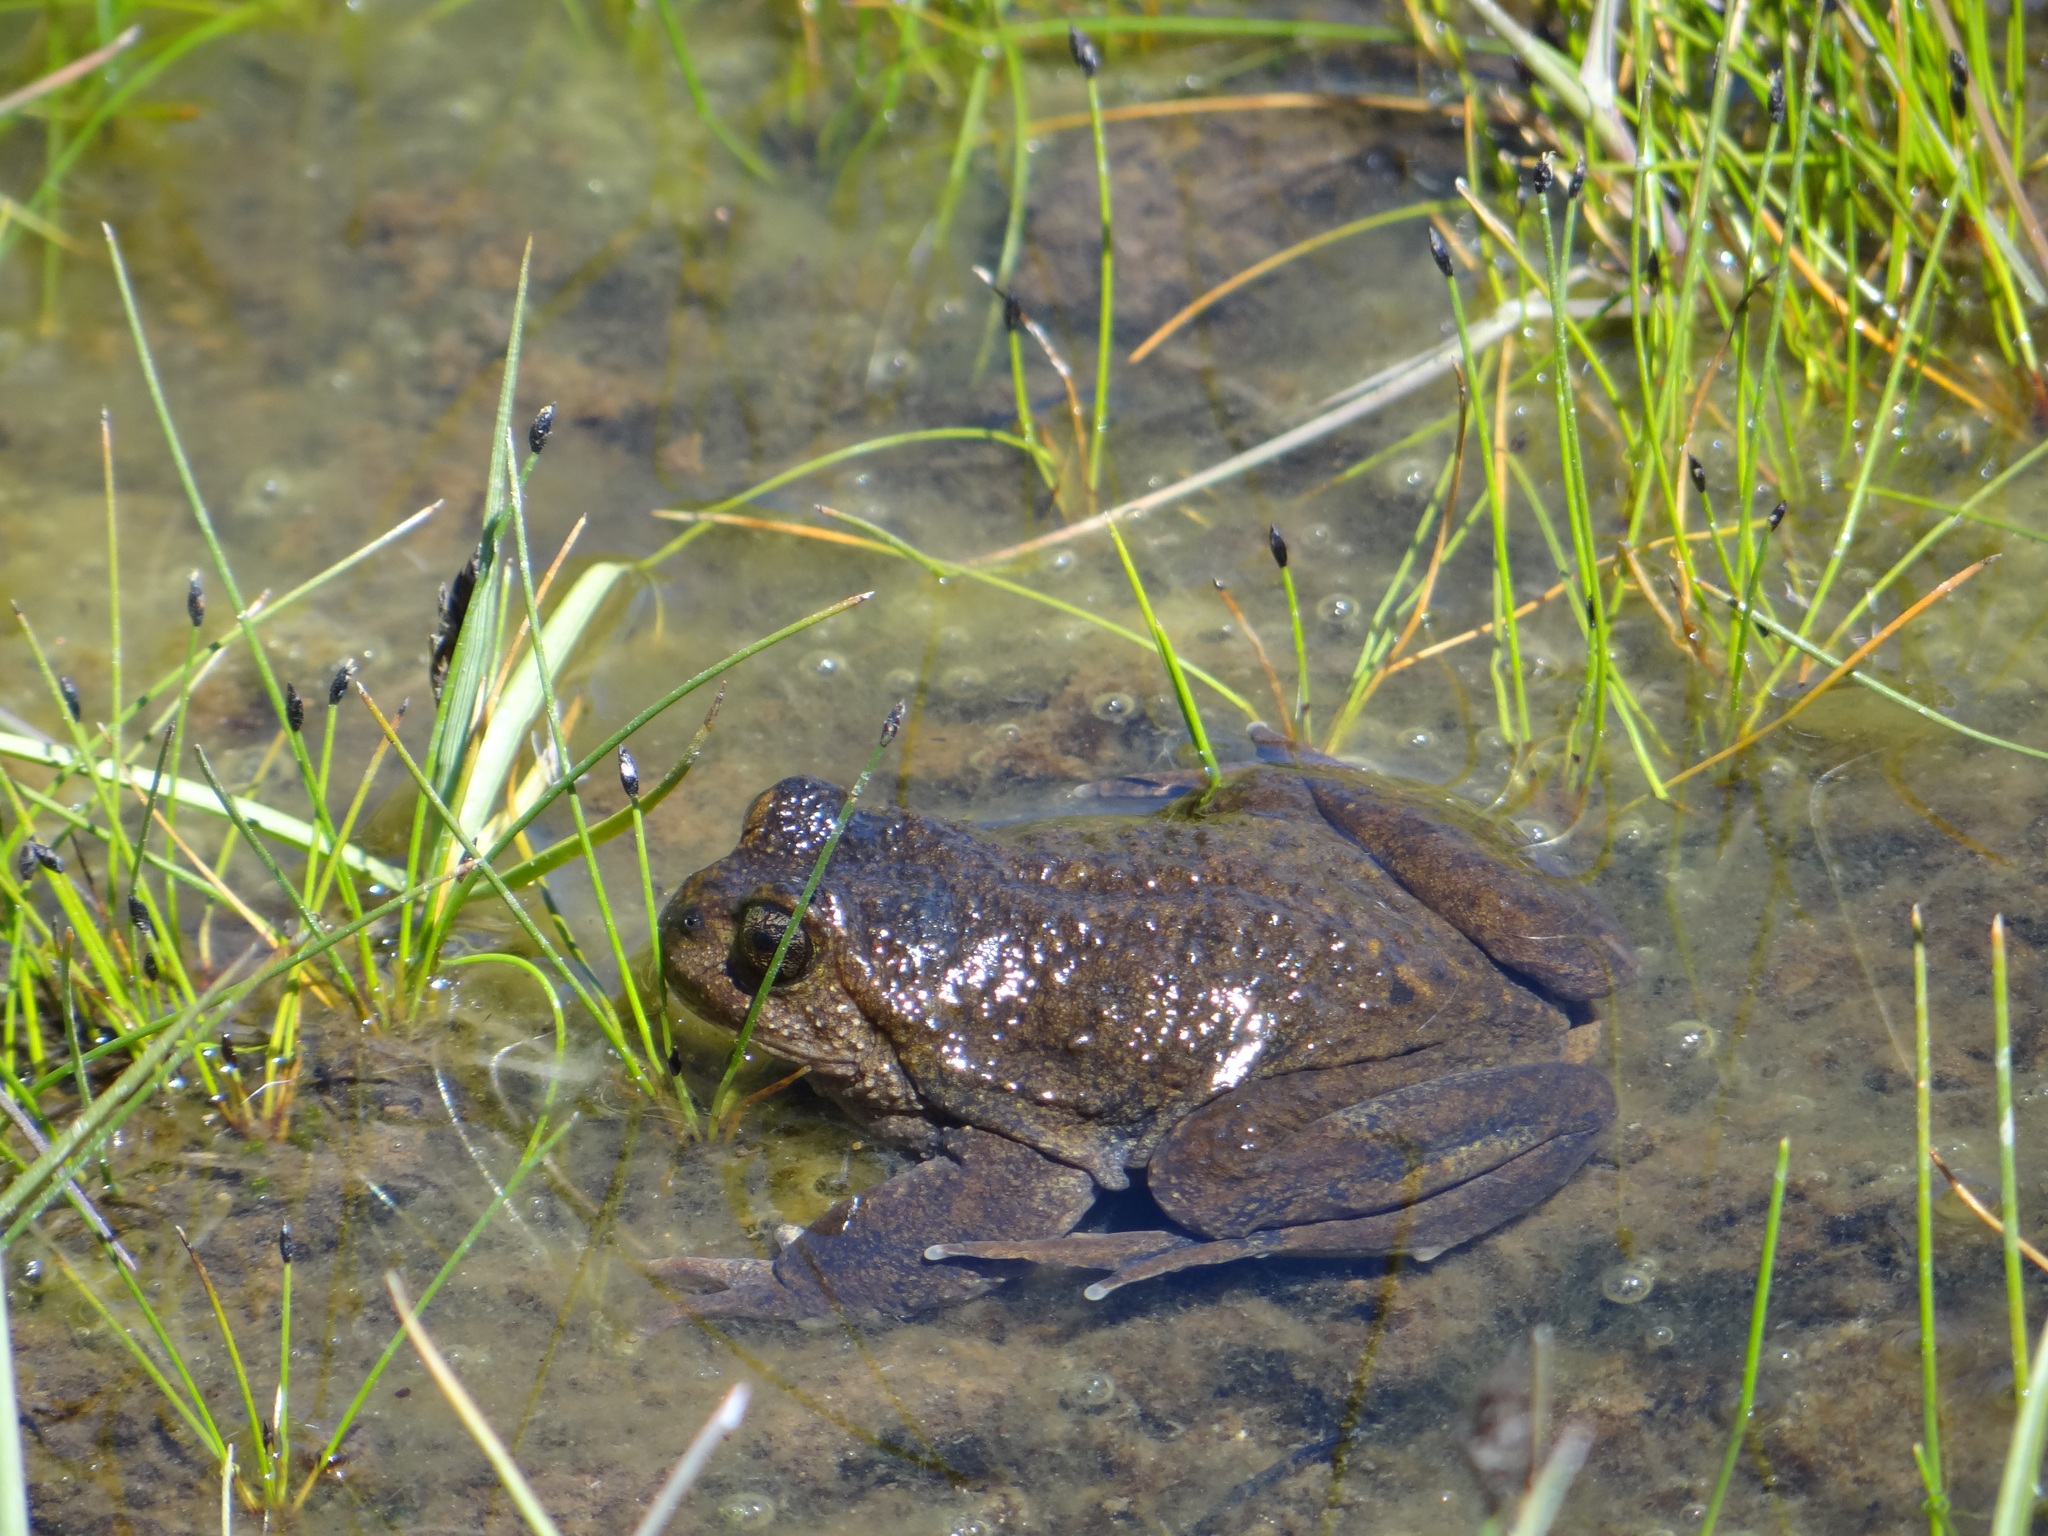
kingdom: Animalia
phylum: Chordata
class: Amphibia
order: Anura
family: Alsodidae
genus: Alsodes
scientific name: Alsodes pehuenche
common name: Pehuenche spiny-chest frog
